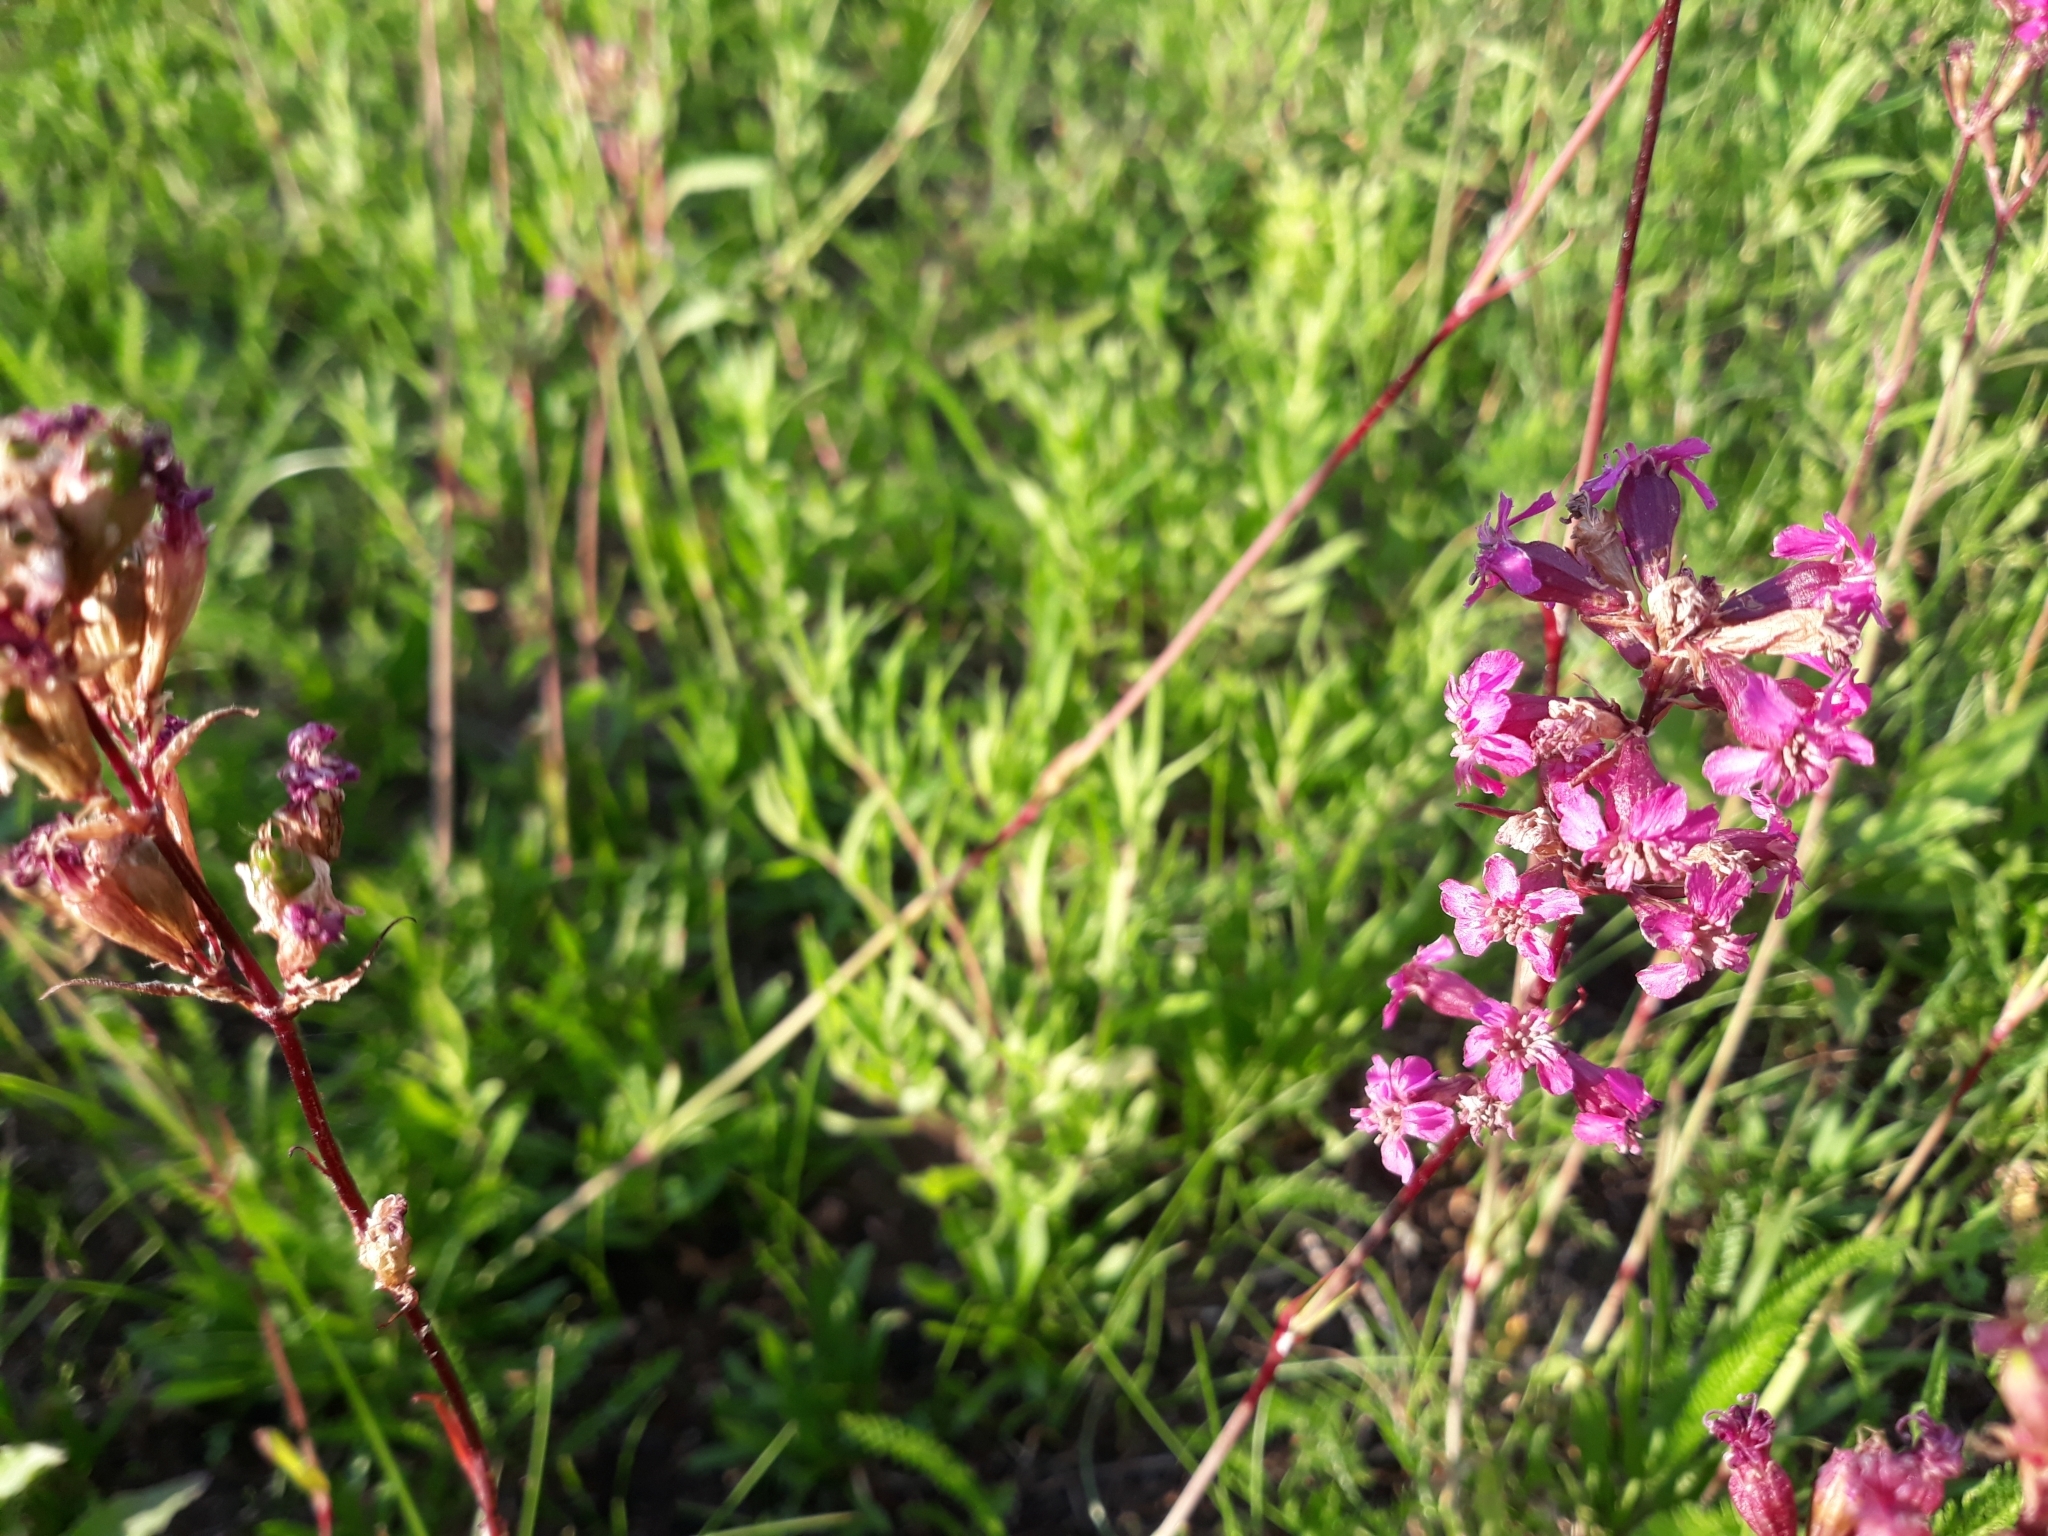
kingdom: Plantae
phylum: Tracheophyta
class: Magnoliopsida
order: Caryophyllales
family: Caryophyllaceae
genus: Viscaria
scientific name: Viscaria vulgaris
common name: Clammy campion
